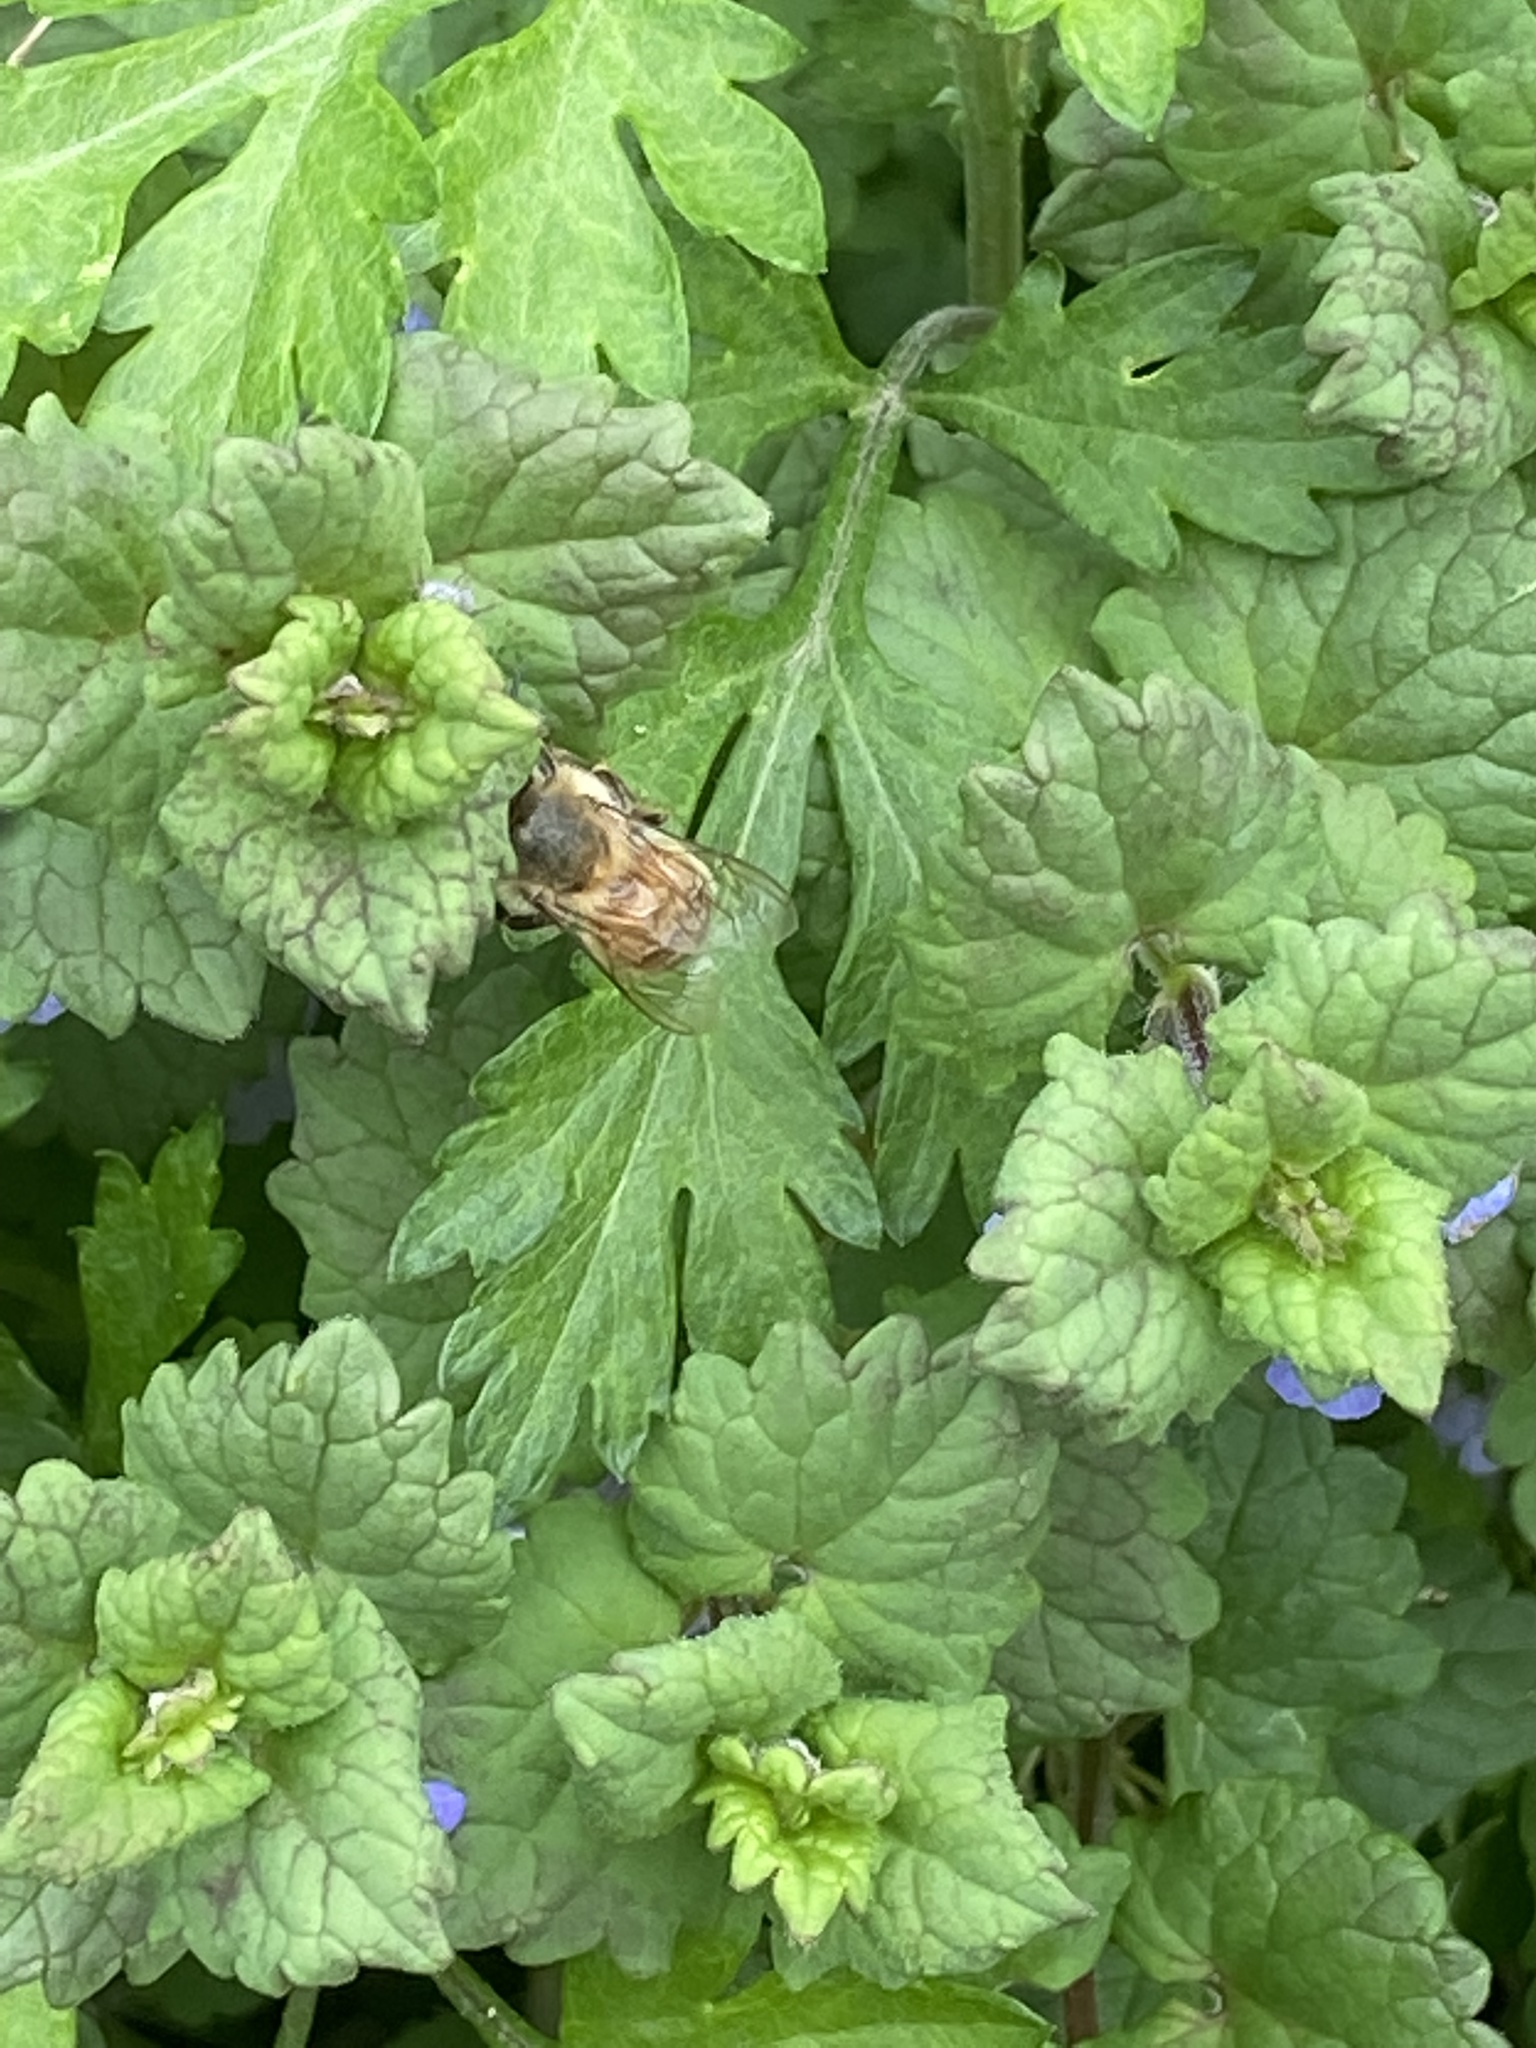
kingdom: Animalia
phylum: Arthropoda
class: Insecta
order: Hymenoptera
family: Apidae
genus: Apis
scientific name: Apis mellifera
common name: Honey bee
